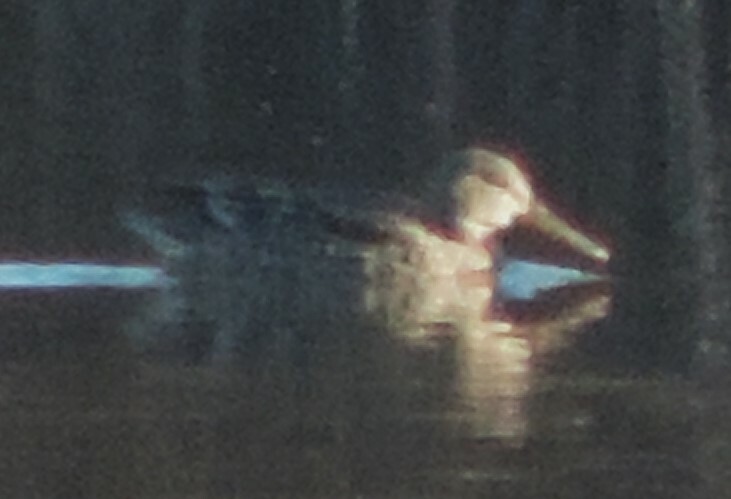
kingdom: Animalia
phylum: Chordata
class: Aves
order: Anseriformes
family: Anatidae
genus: Spatula
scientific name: Spatula clypeata
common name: Northern shoveler
